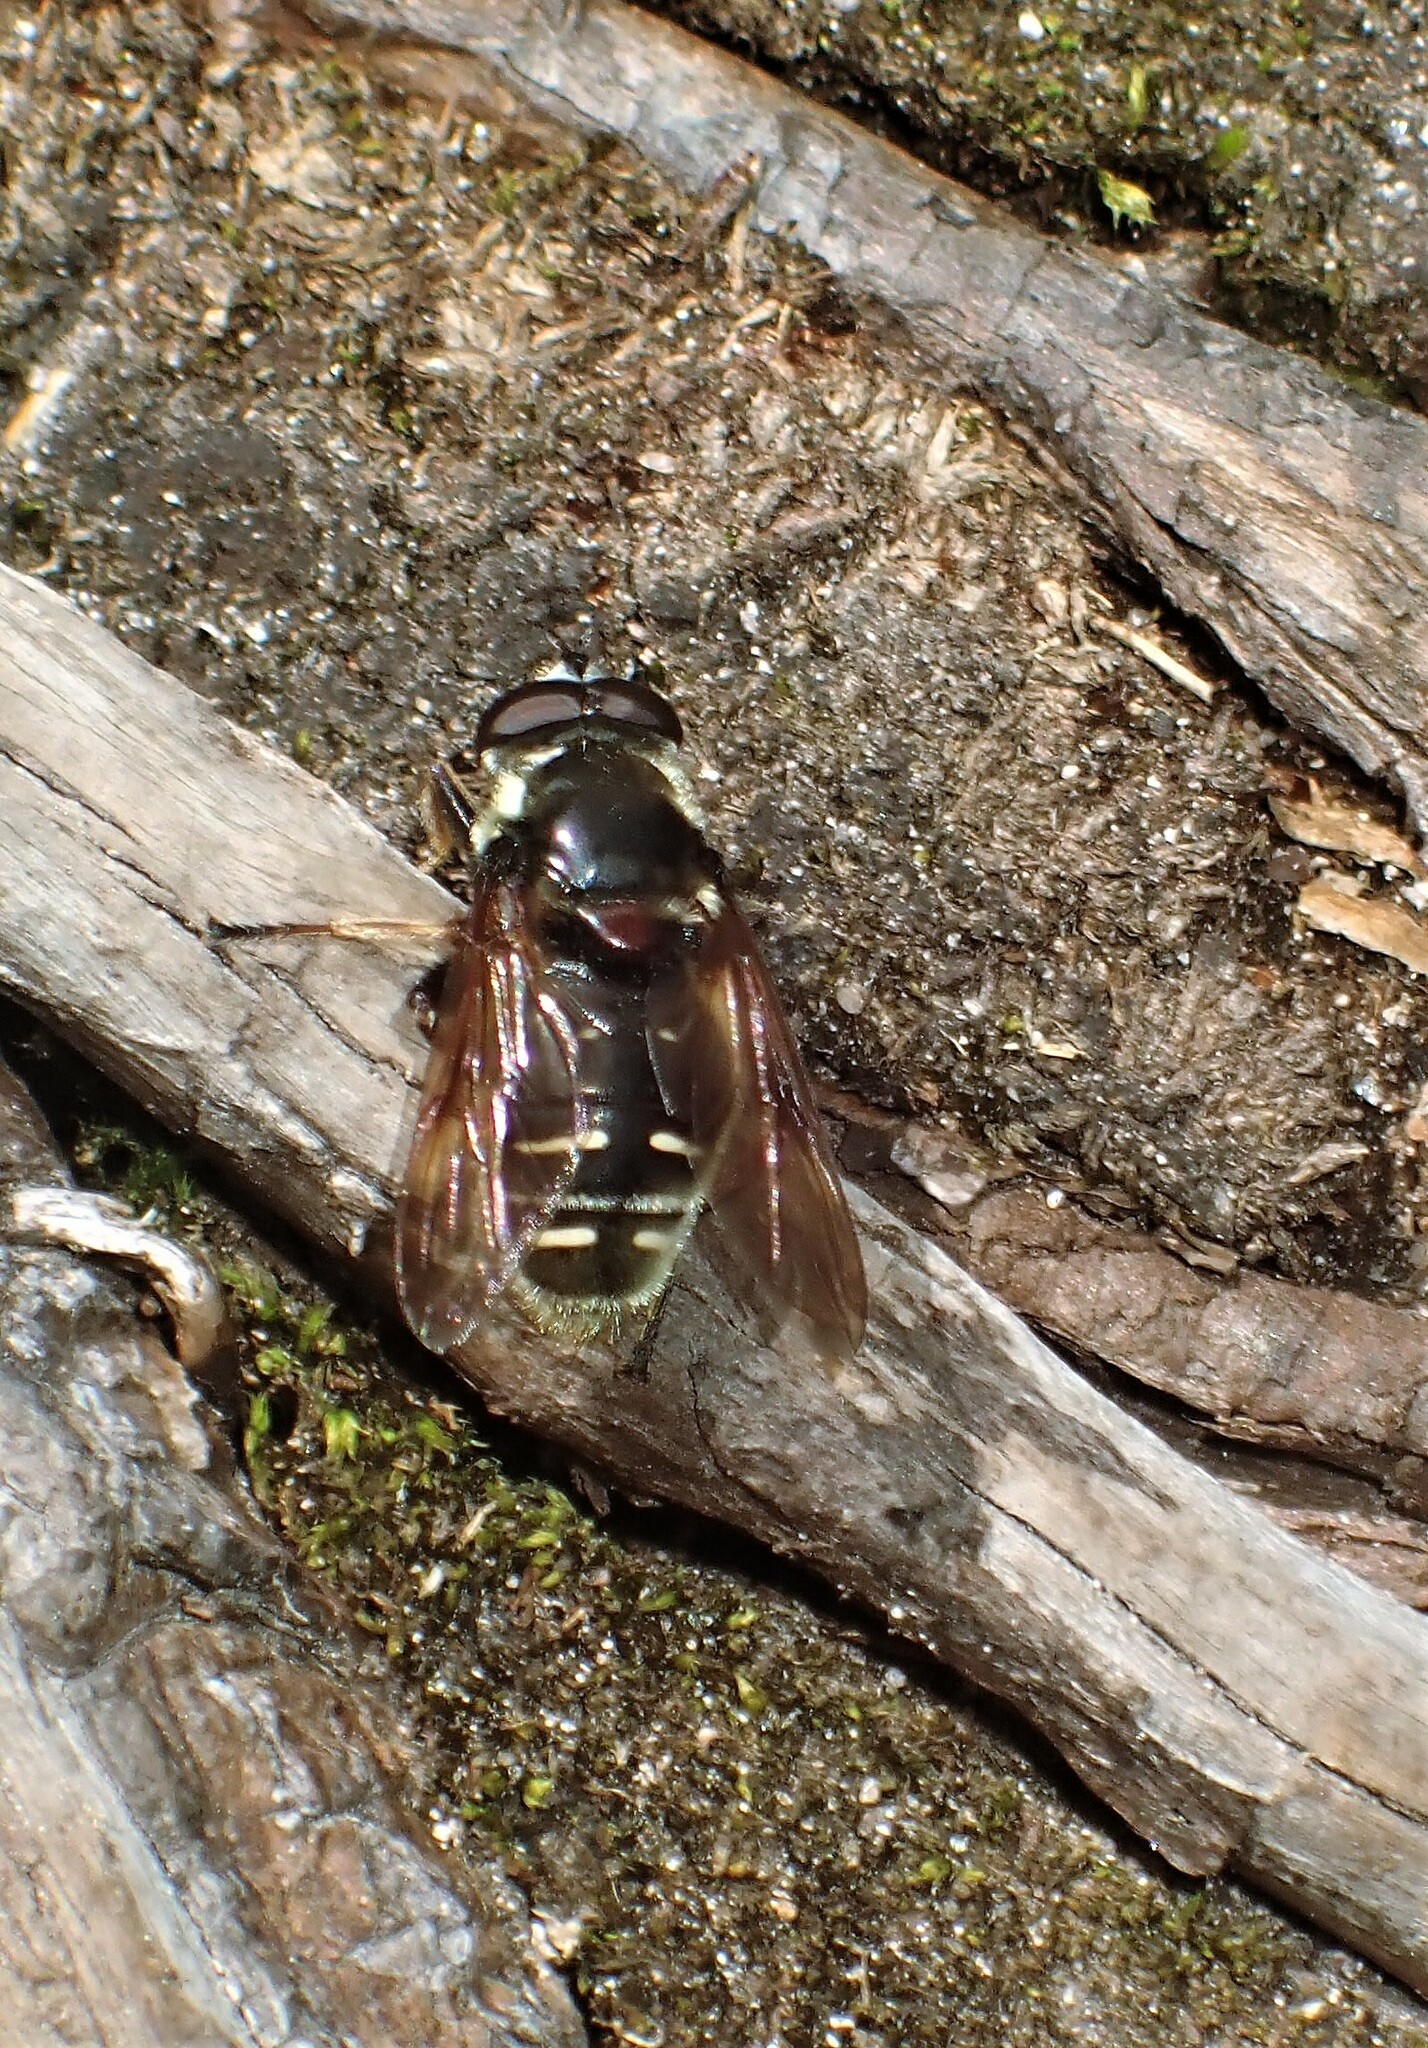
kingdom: Animalia
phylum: Arthropoda
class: Insecta
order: Diptera
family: Syrphidae
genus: Sericomyia
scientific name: Sericomyia militaris
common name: Narrow-banded pond fly
